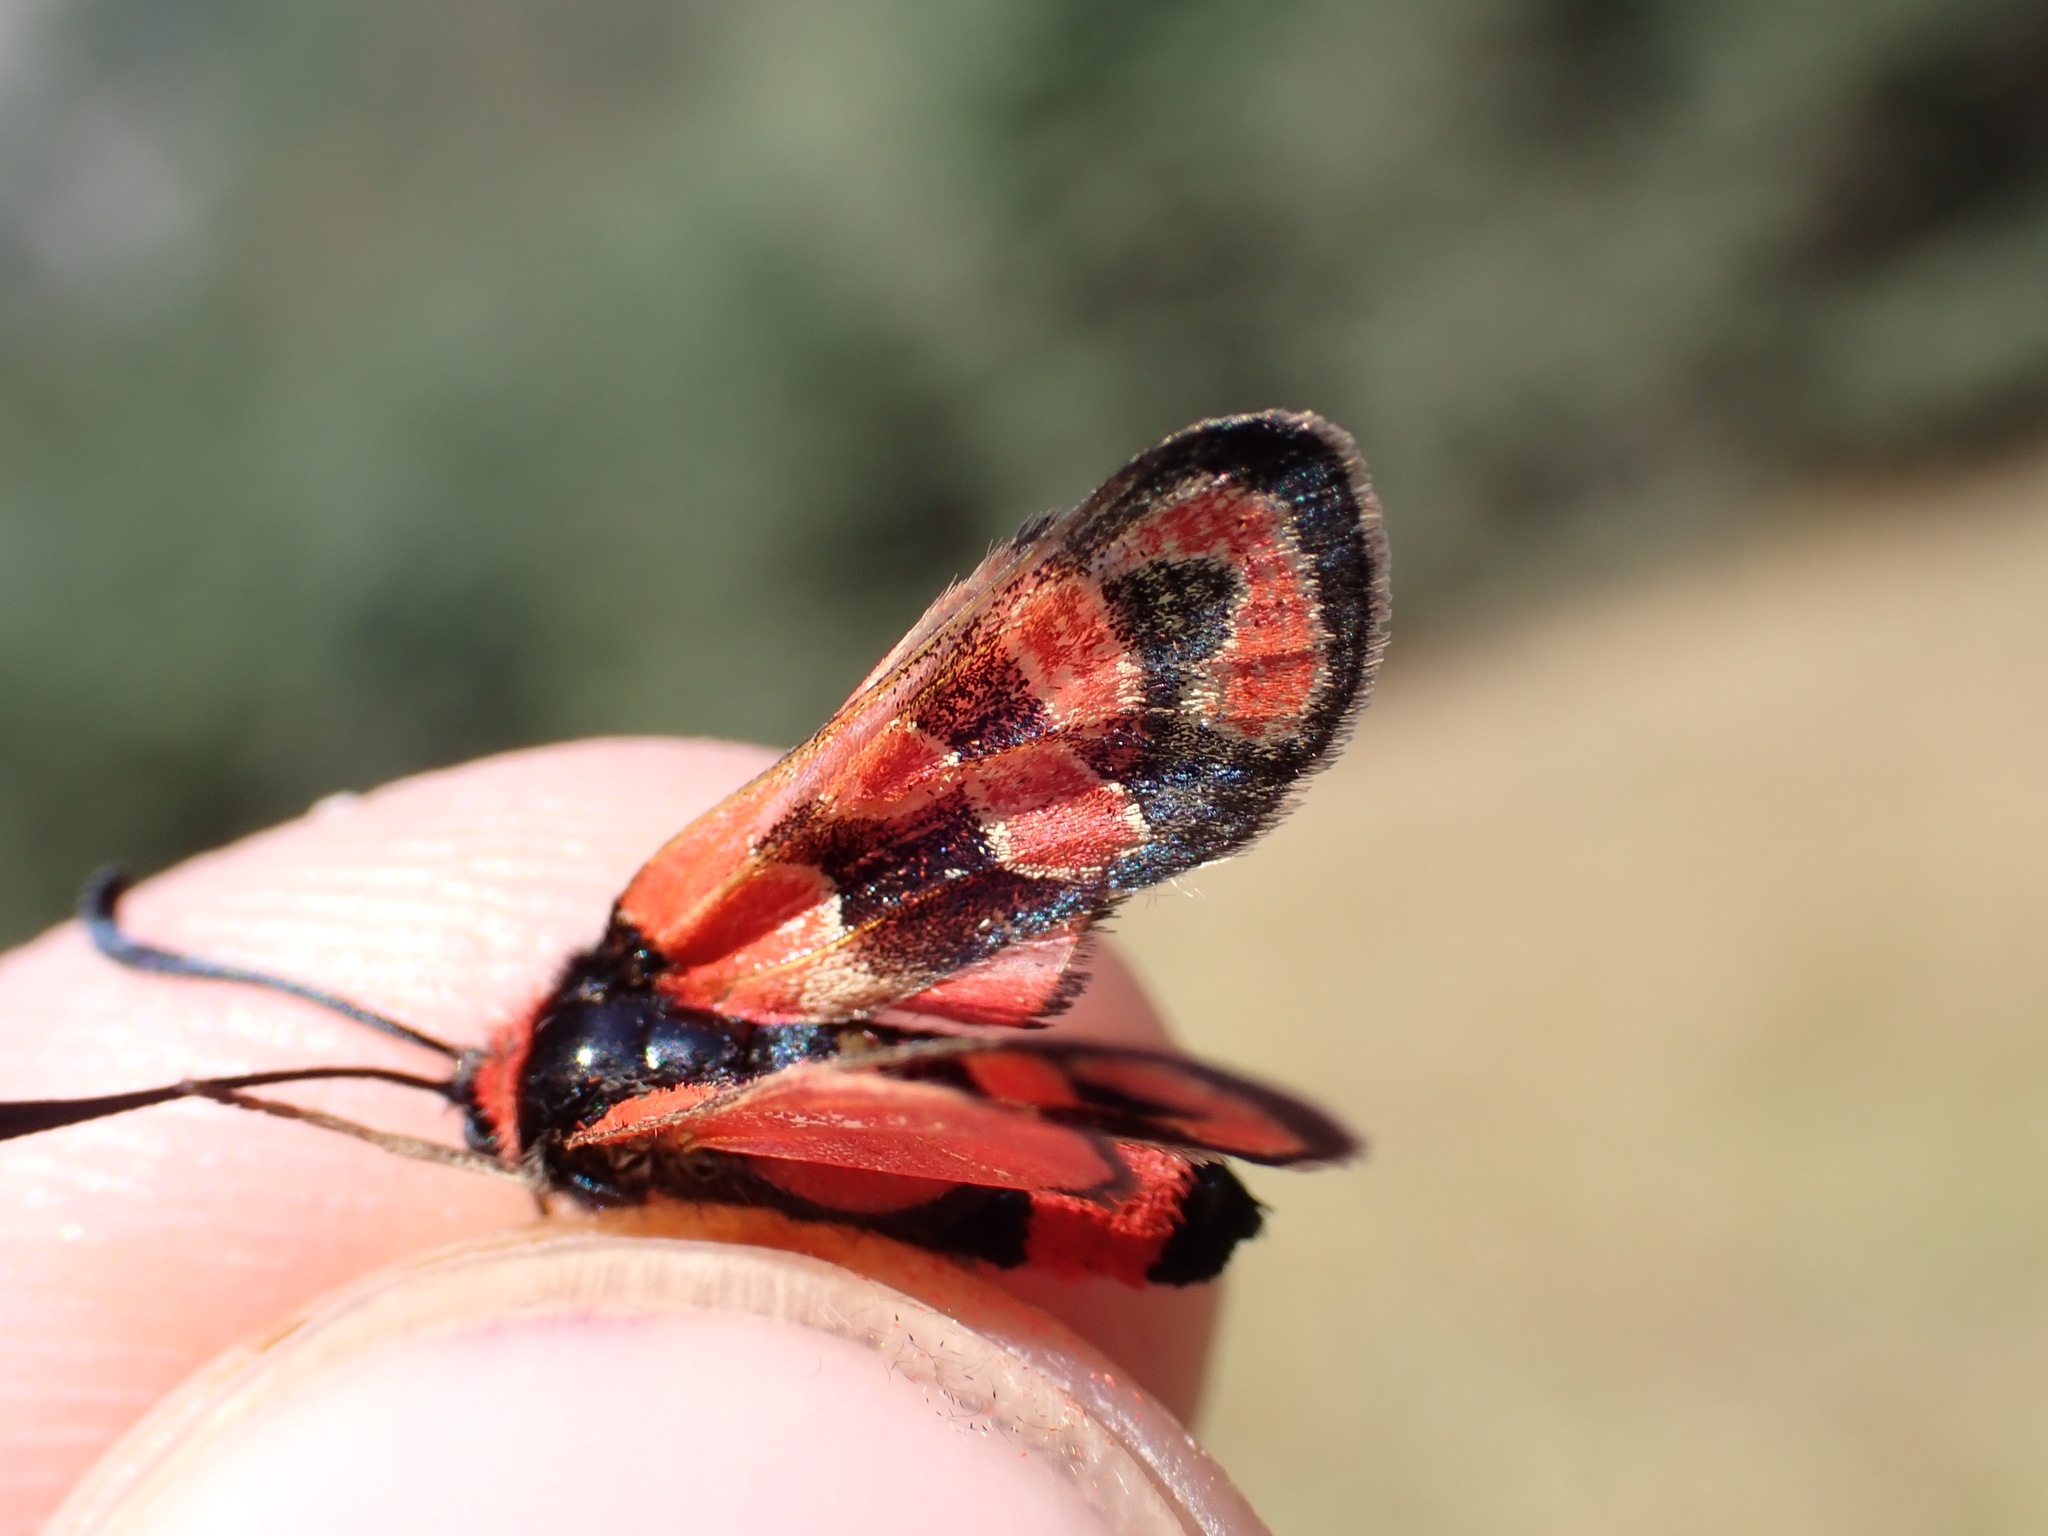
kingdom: Animalia
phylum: Arthropoda
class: Insecta
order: Lepidoptera
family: Zygaenidae
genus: Zygaena
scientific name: Zygaena fausta
